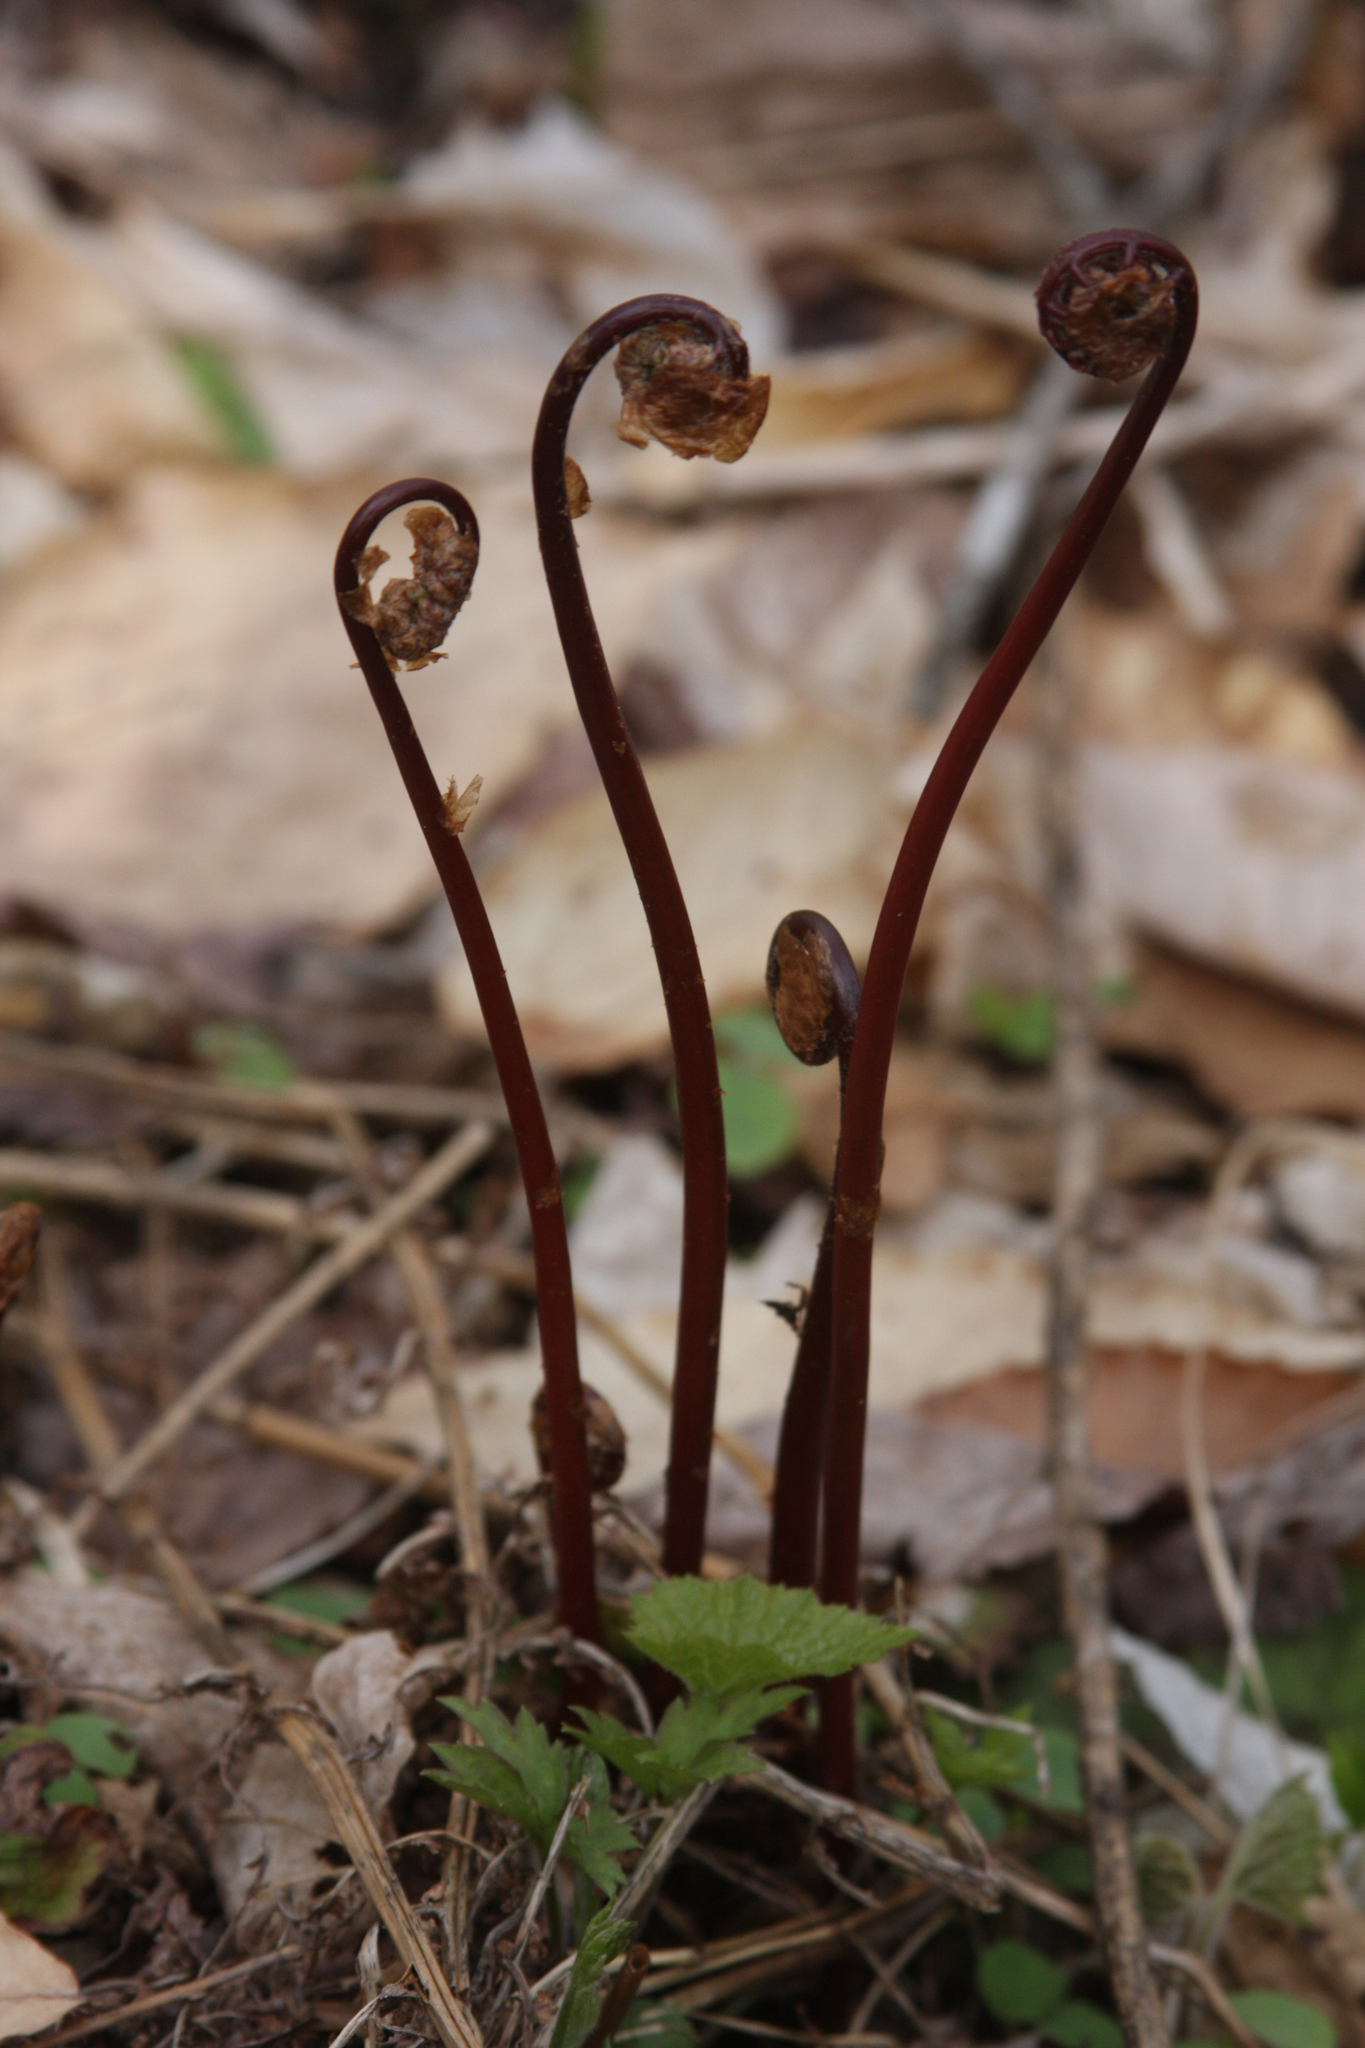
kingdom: Plantae
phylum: Tracheophyta
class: Polypodiopsida
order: Polypodiales
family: Onocleaceae
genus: Onoclea
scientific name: Onoclea sensibilis
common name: Sensitive fern
